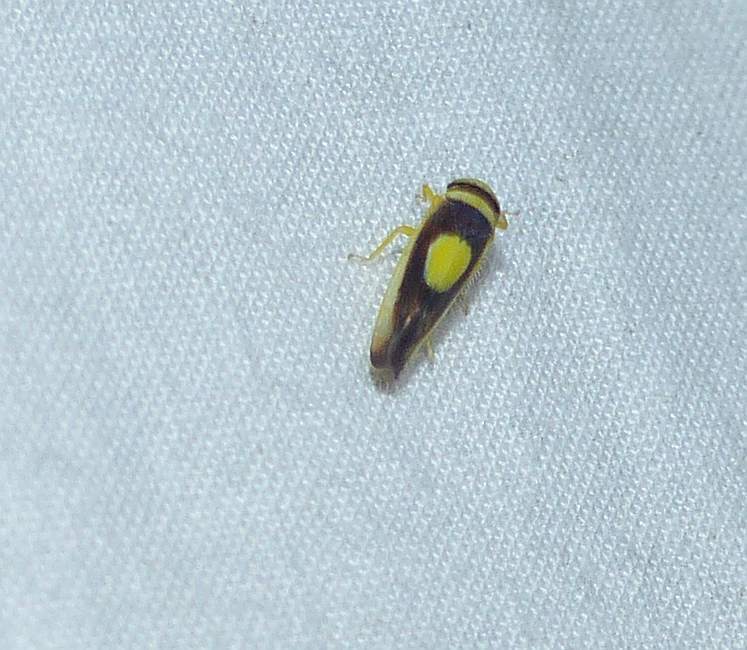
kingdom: Animalia
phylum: Arthropoda
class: Insecta
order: Hemiptera
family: Cicadellidae
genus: Colladonus
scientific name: Colladonus clitellarius
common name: The saddleback leafhopper
